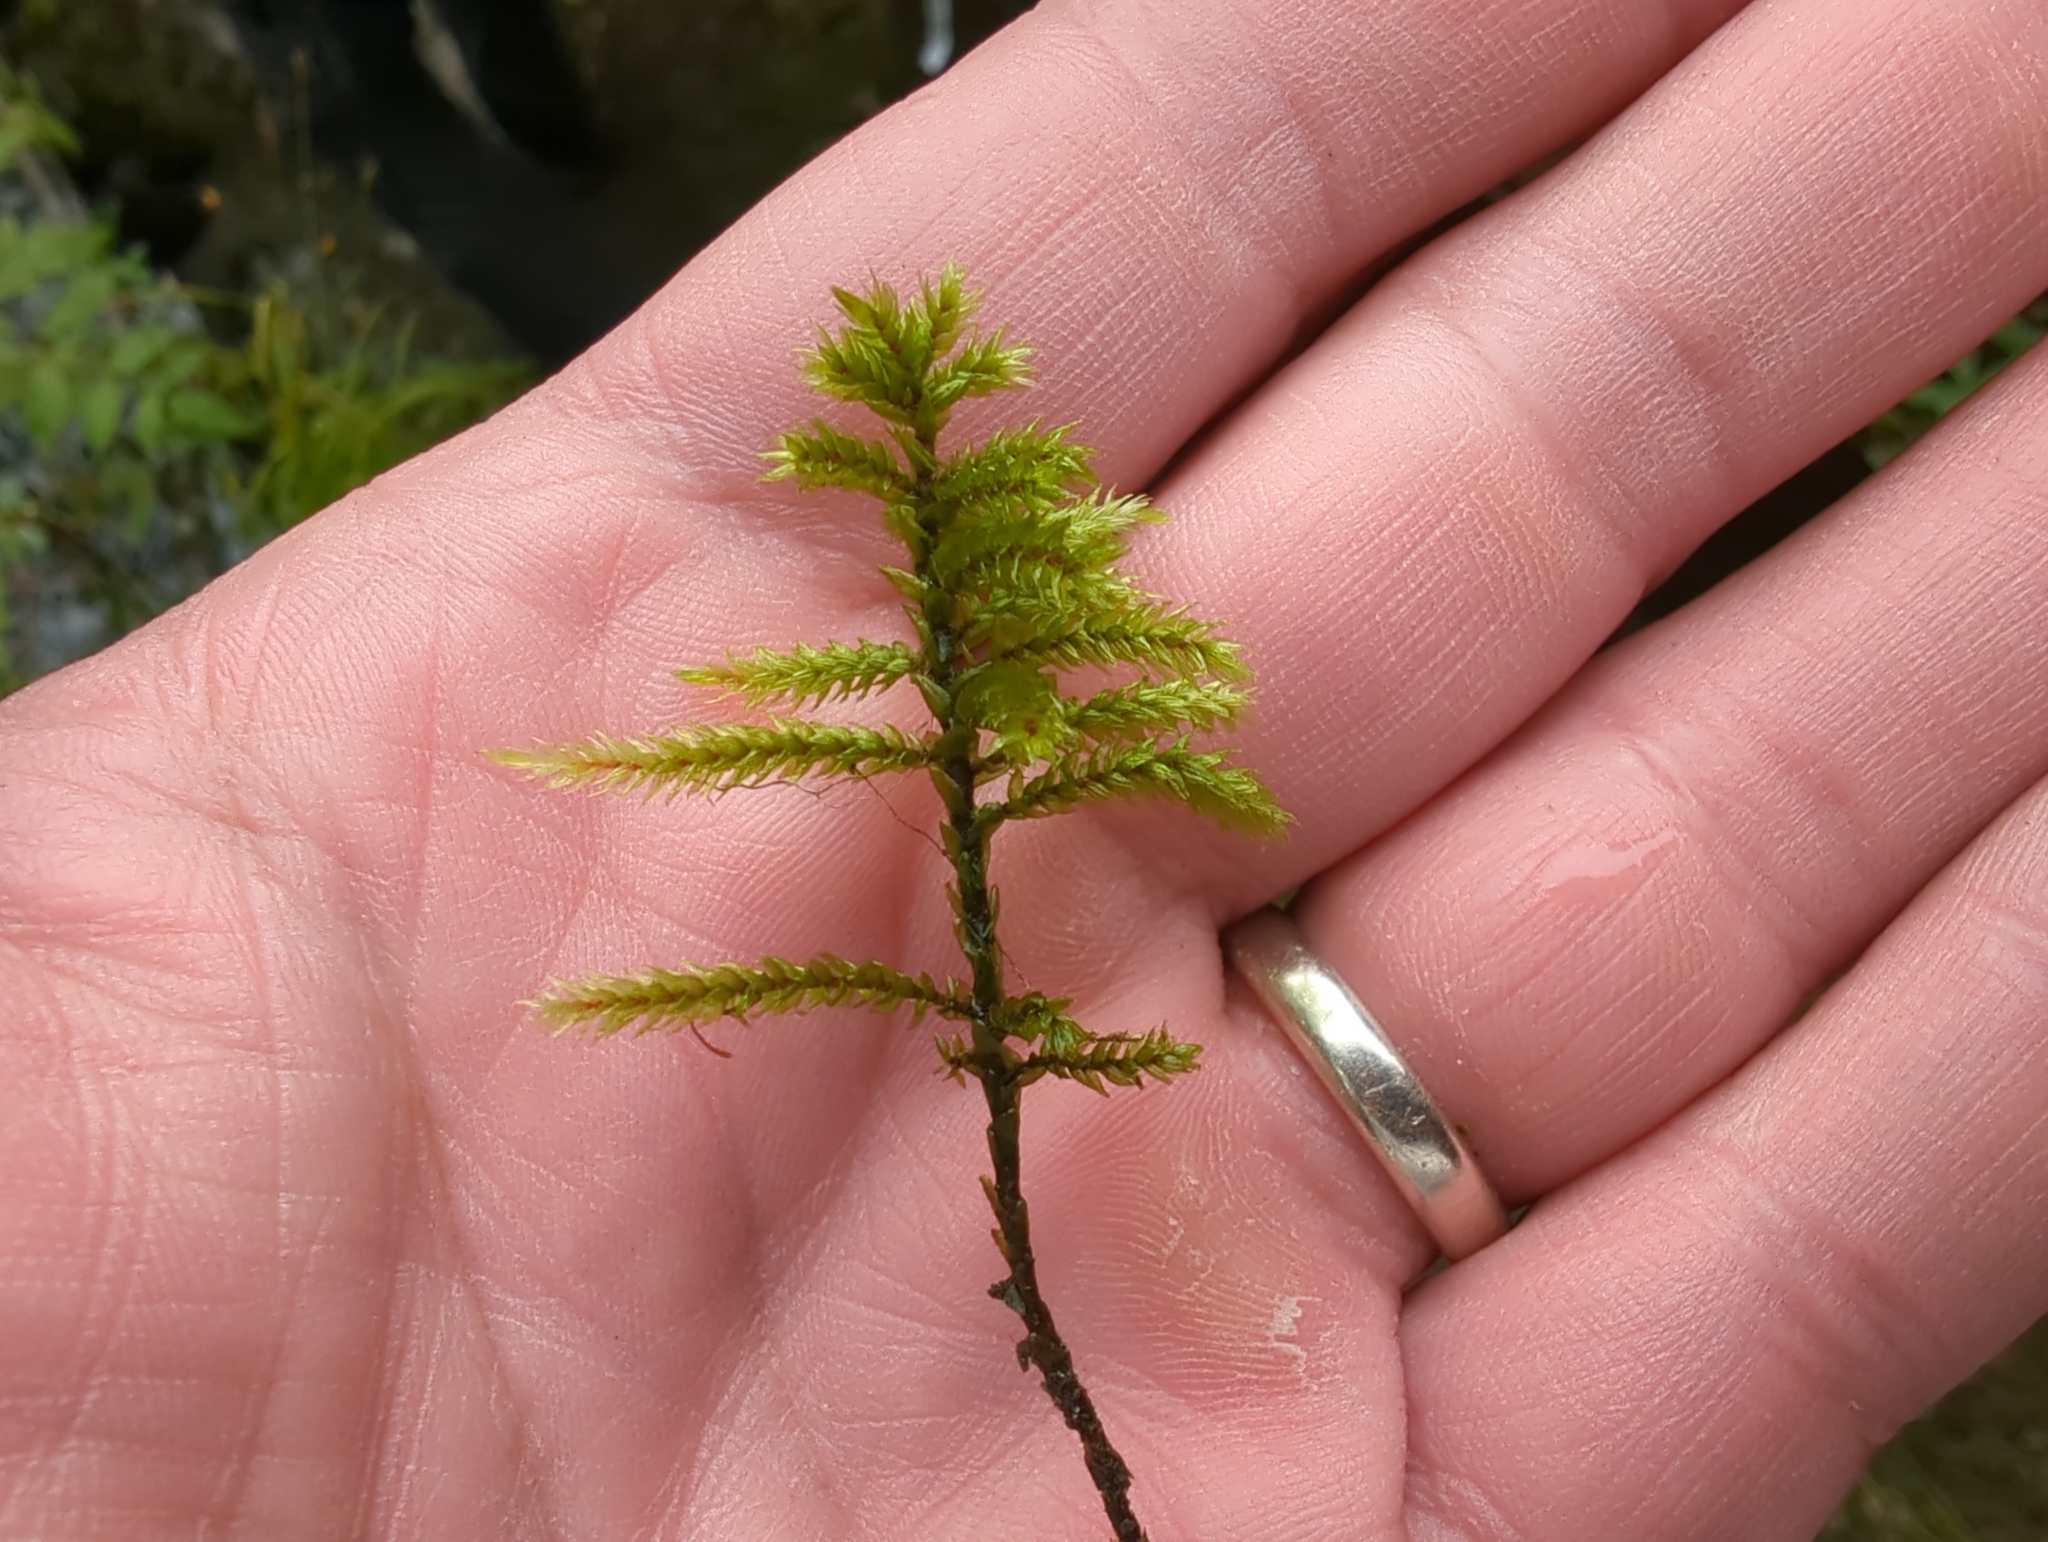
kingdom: Plantae
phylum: Bryophyta
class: Bryopsida
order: Hypnales
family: Climaciaceae
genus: Climacium
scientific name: Climacium dendroides
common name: Northern tree moss
